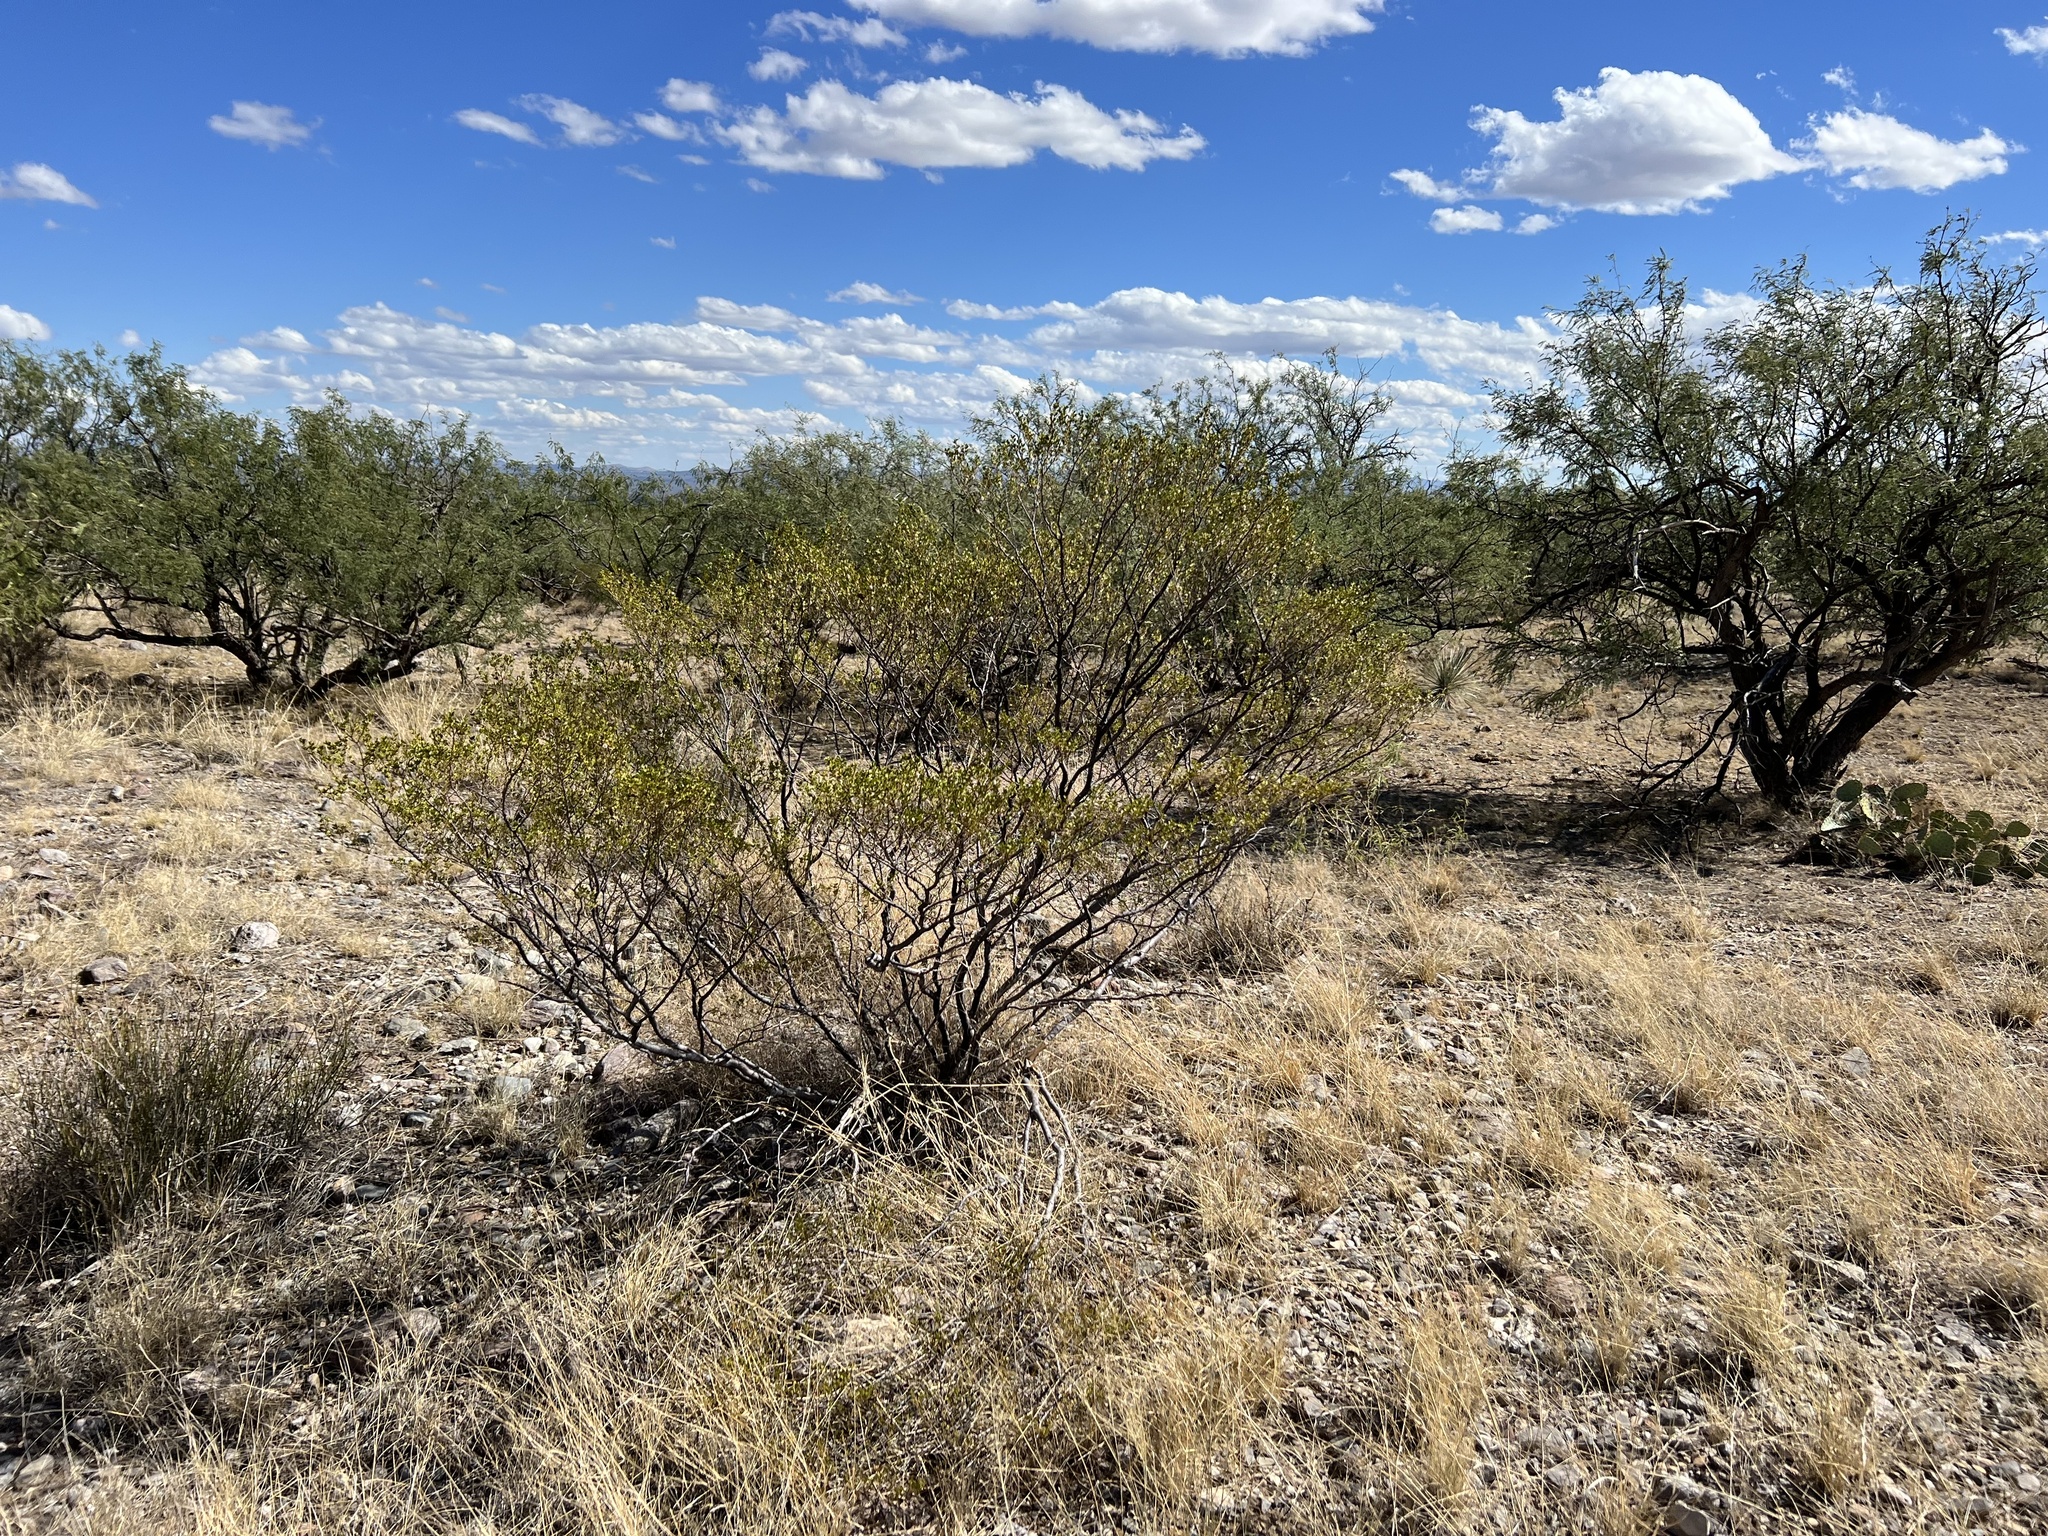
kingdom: Plantae
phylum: Tracheophyta
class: Magnoliopsida
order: Zygophyllales
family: Zygophyllaceae
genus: Larrea
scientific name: Larrea tridentata
